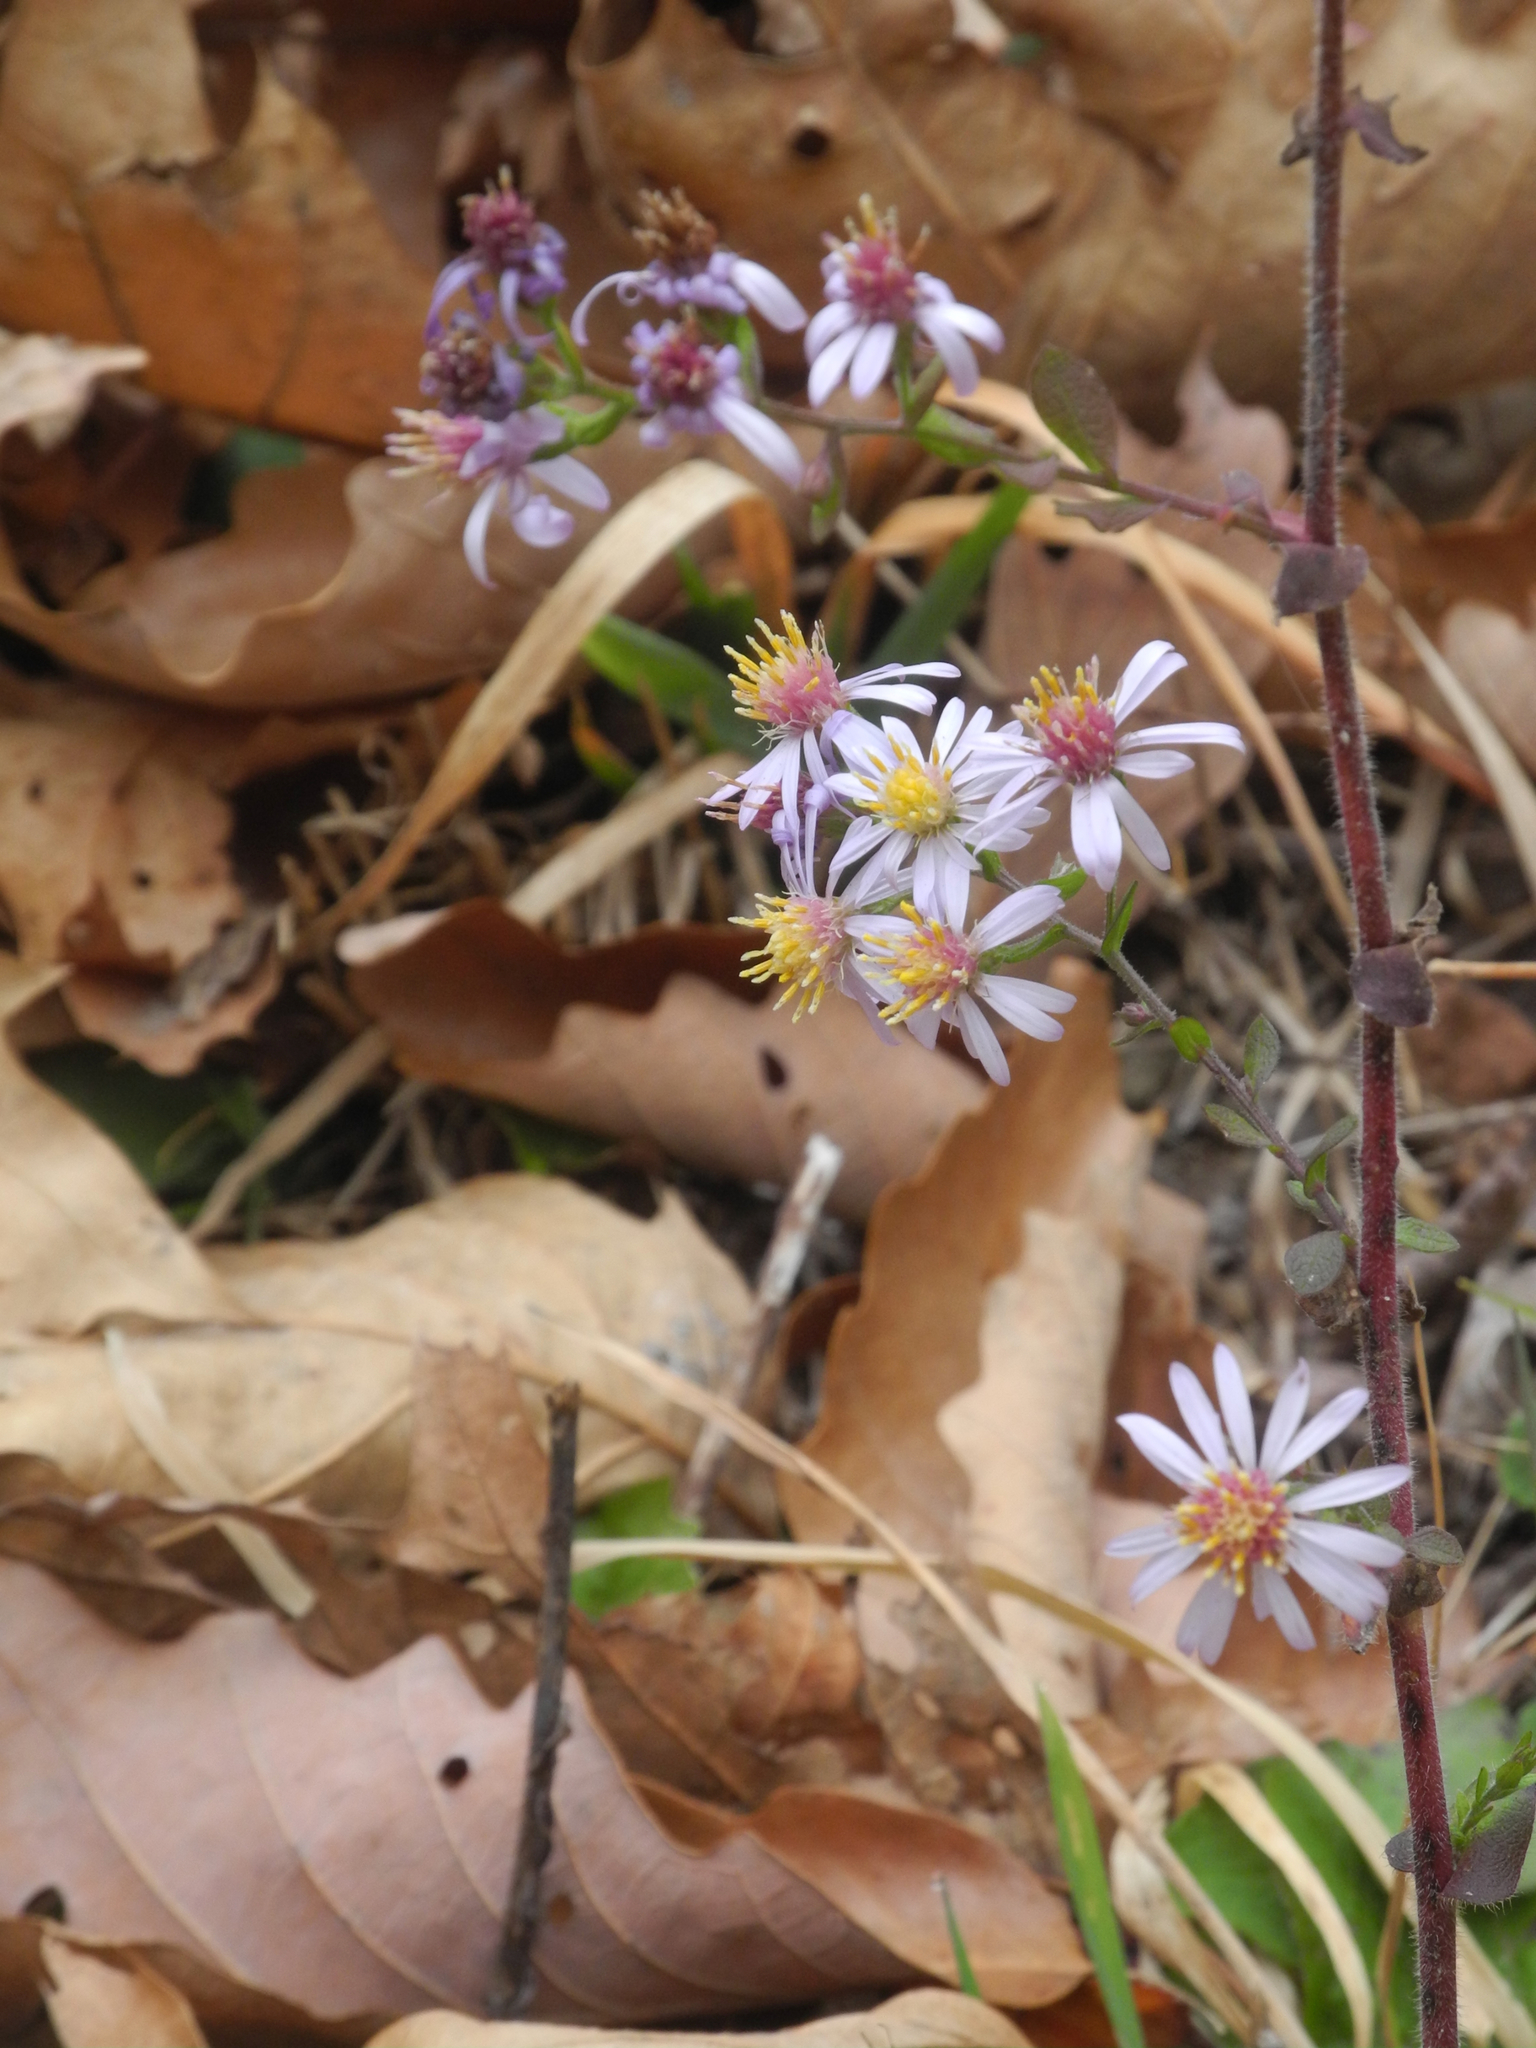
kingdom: Plantae
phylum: Tracheophyta
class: Magnoliopsida
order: Asterales
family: Asteraceae
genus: Symphyotrichum
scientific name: Symphyotrichum undulatum
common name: Clasping heart-leaf aster
